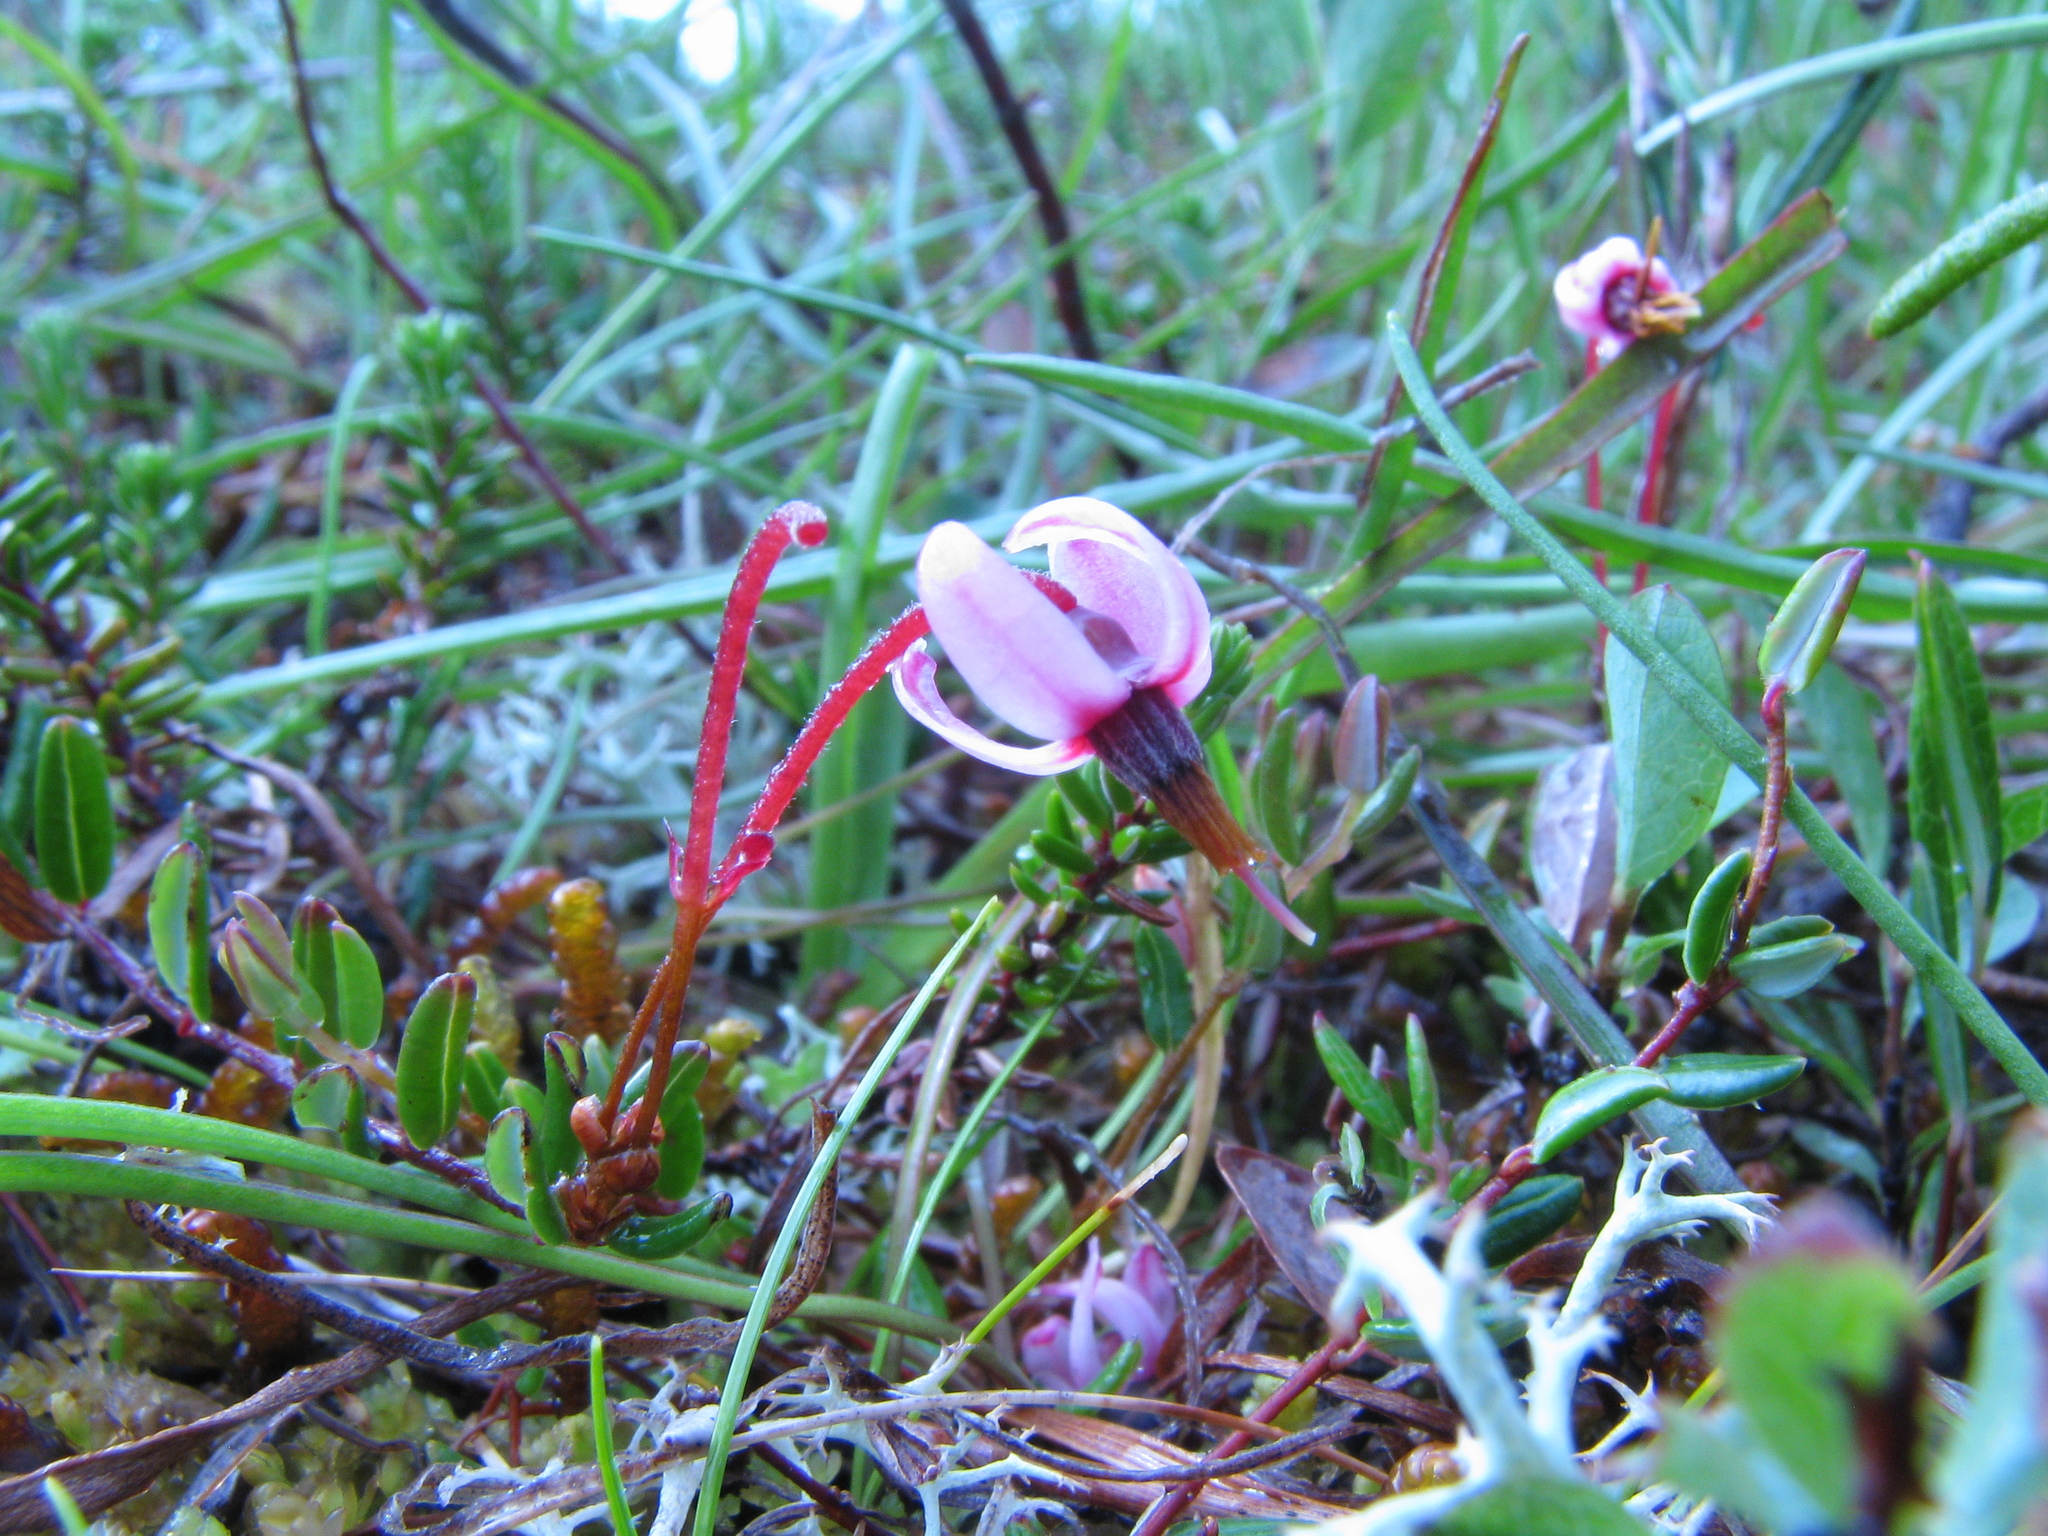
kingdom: Plantae
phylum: Tracheophyta
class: Magnoliopsida
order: Ericales
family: Ericaceae
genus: Vaccinium
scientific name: Vaccinium oxycoccos
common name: Cranberry
